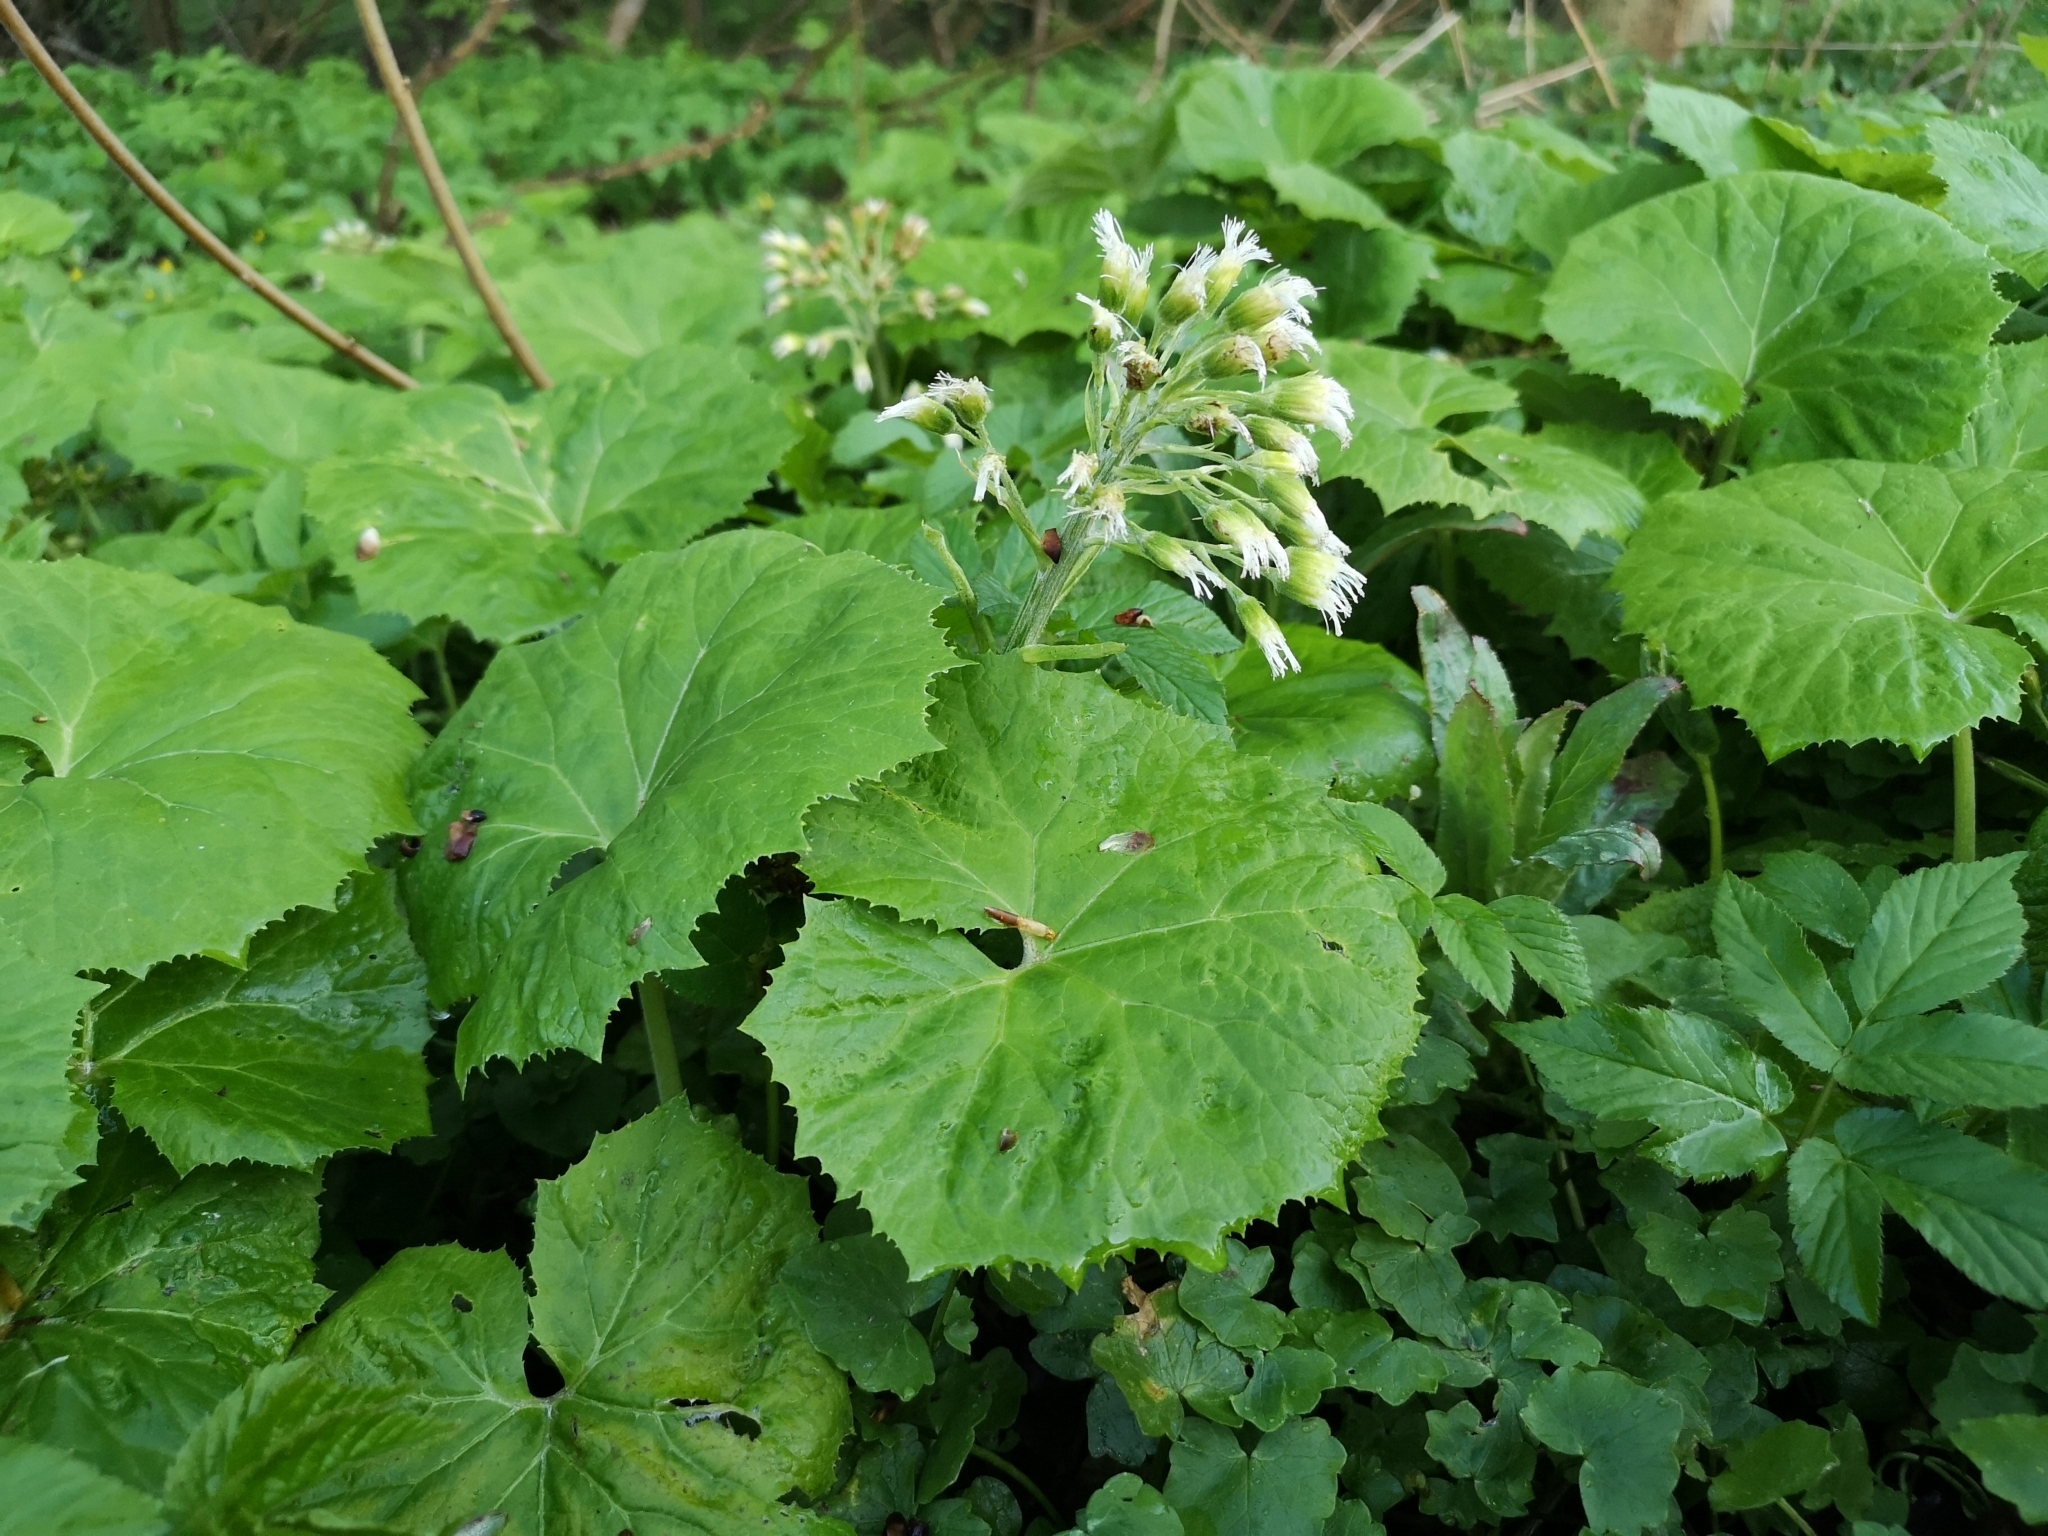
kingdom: Plantae
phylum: Tracheophyta
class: Magnoliopsida
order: Asterales
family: Asteraceae
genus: Petasites
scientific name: Petasites albus
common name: White butterbur
